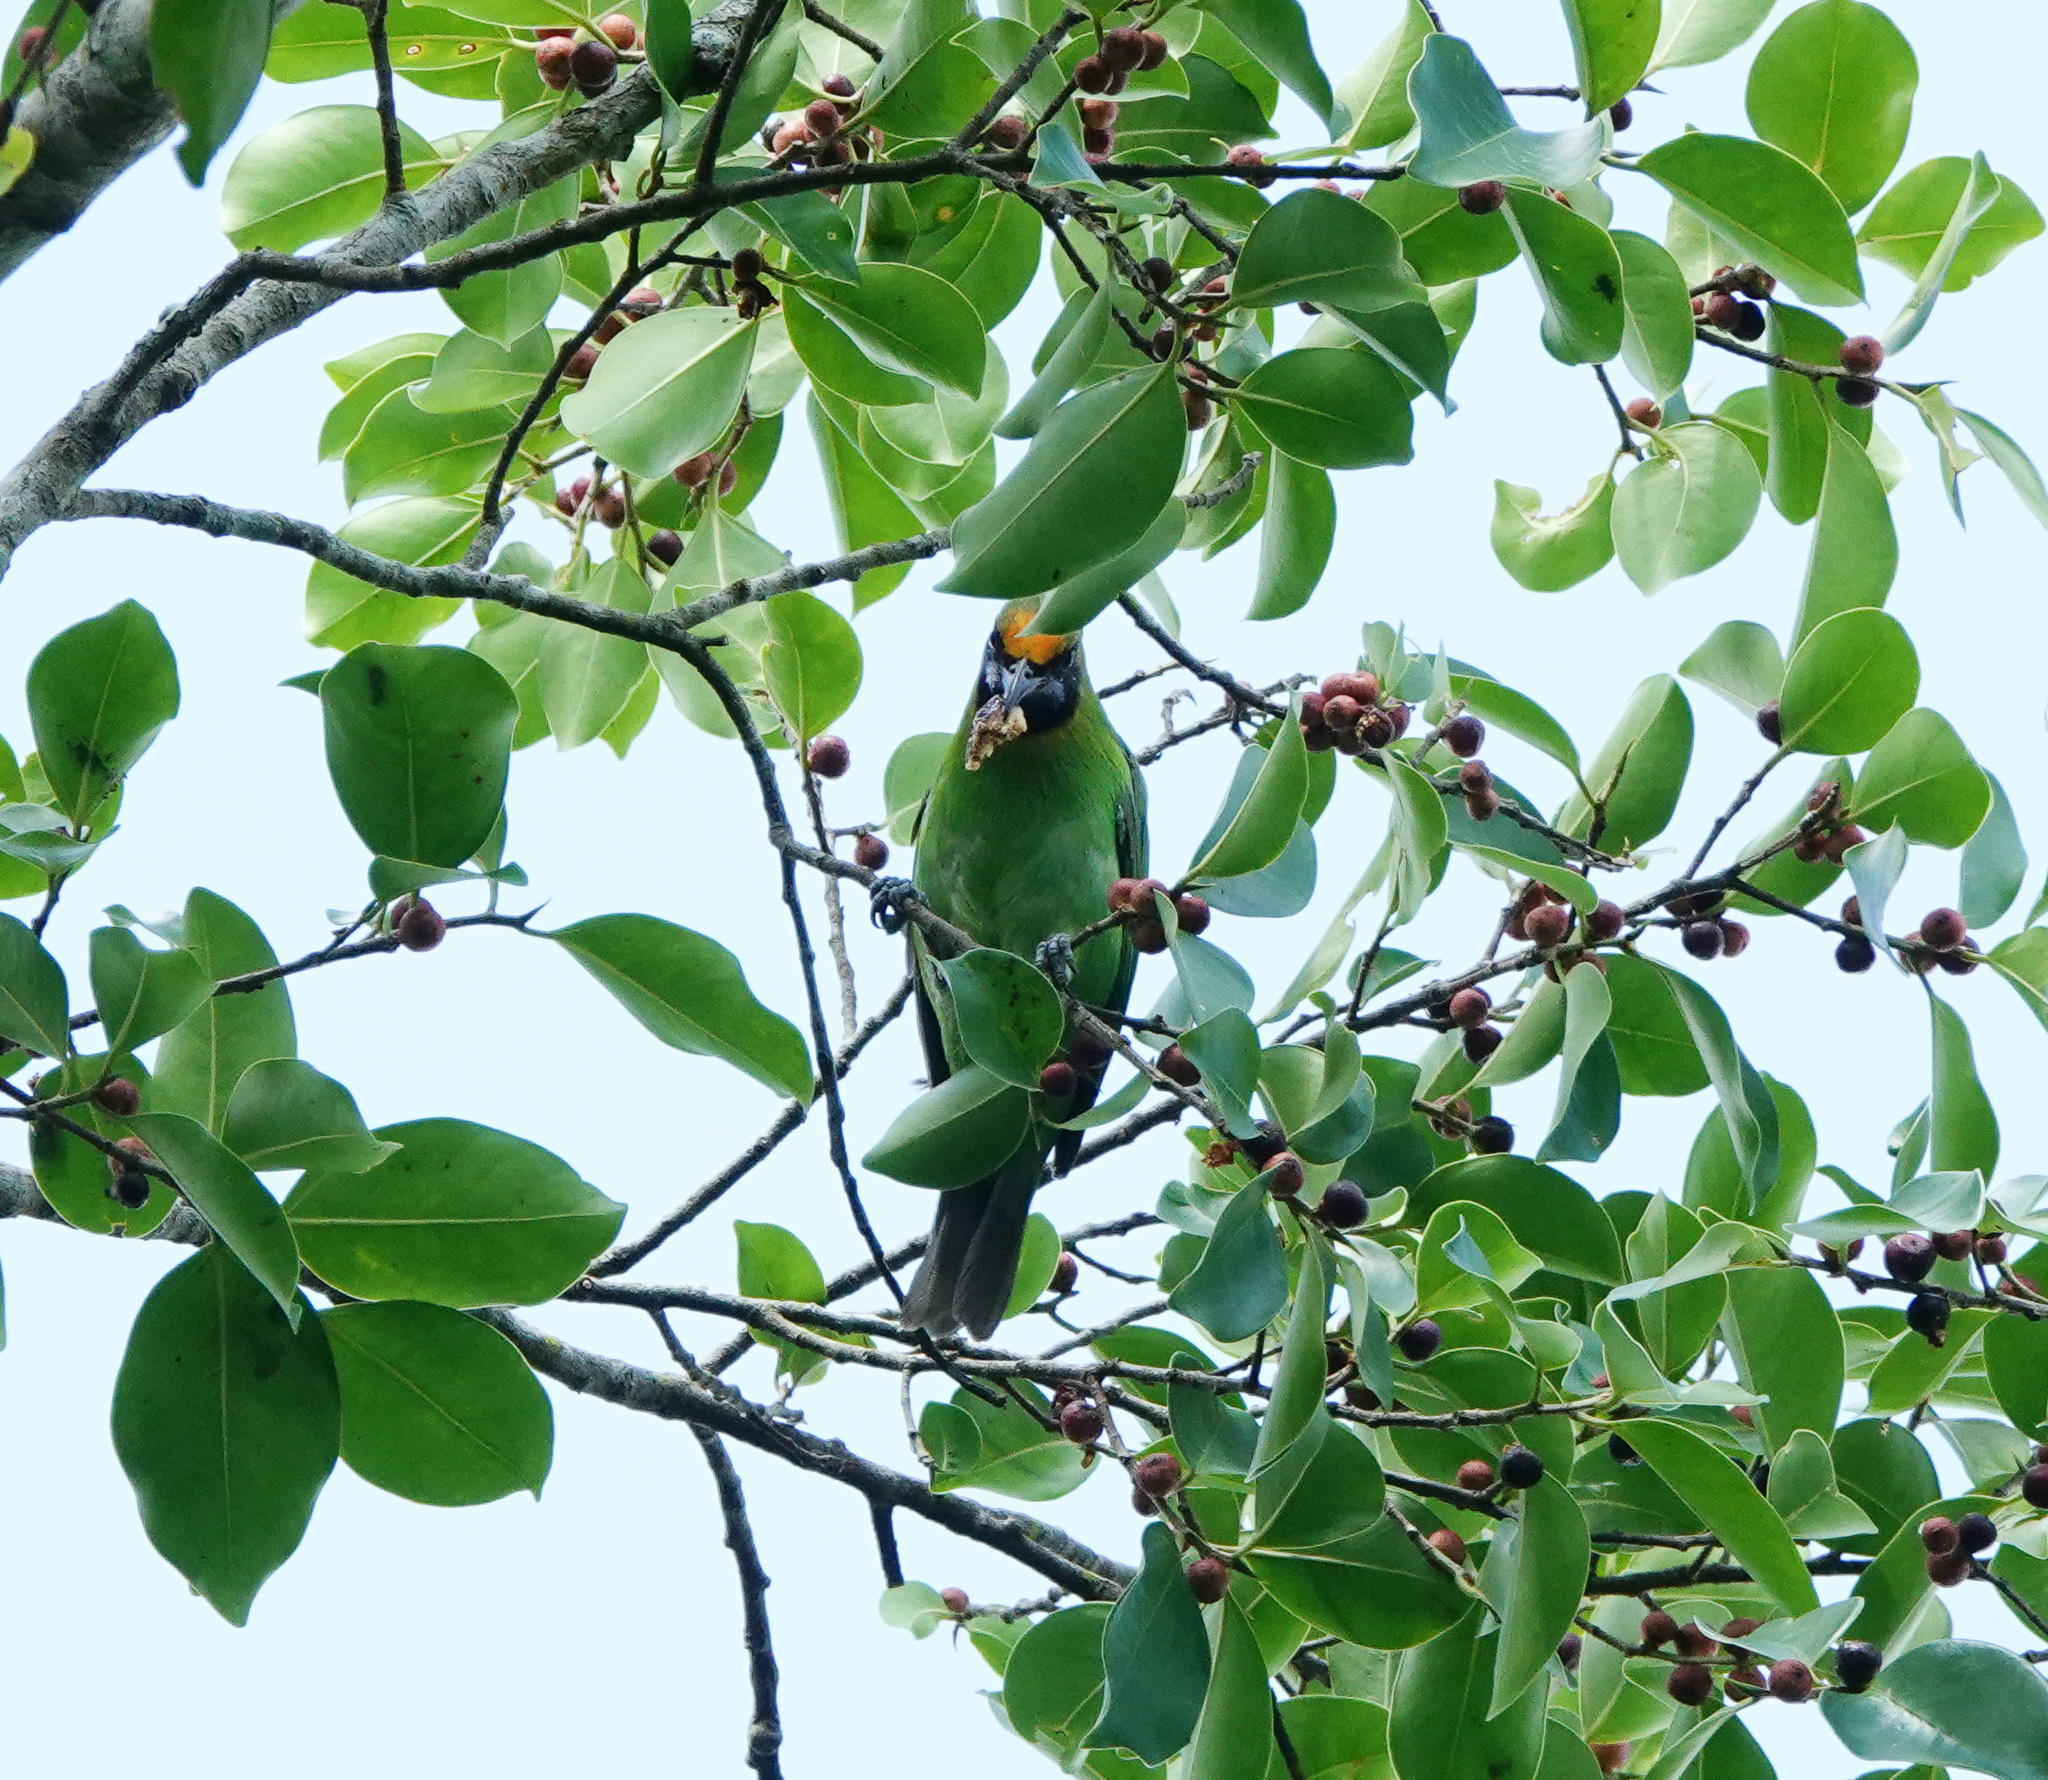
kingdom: Animalia
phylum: Chordata
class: Aves
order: Passeriformes
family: Chloropseidae
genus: Chloropsis
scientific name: Chloropsis aurifrons
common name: Golden-fronted leafbird
